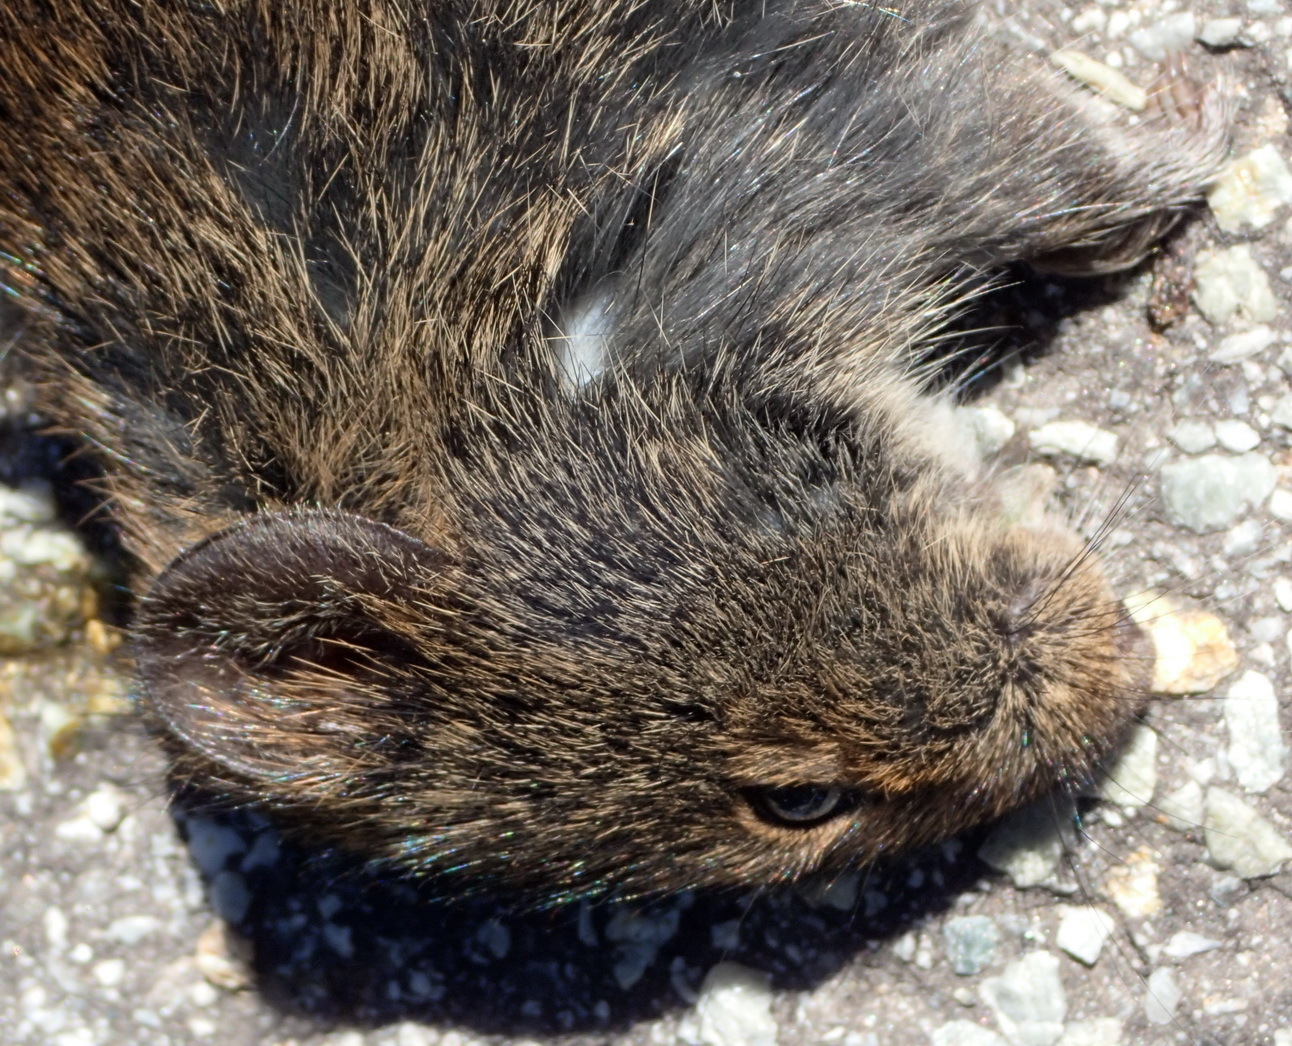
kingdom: Animalia
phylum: Chordata
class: Mammalia
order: Rodentia
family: Muridae
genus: Otomys
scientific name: Otomys irroratus
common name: Southern african vlei rat
